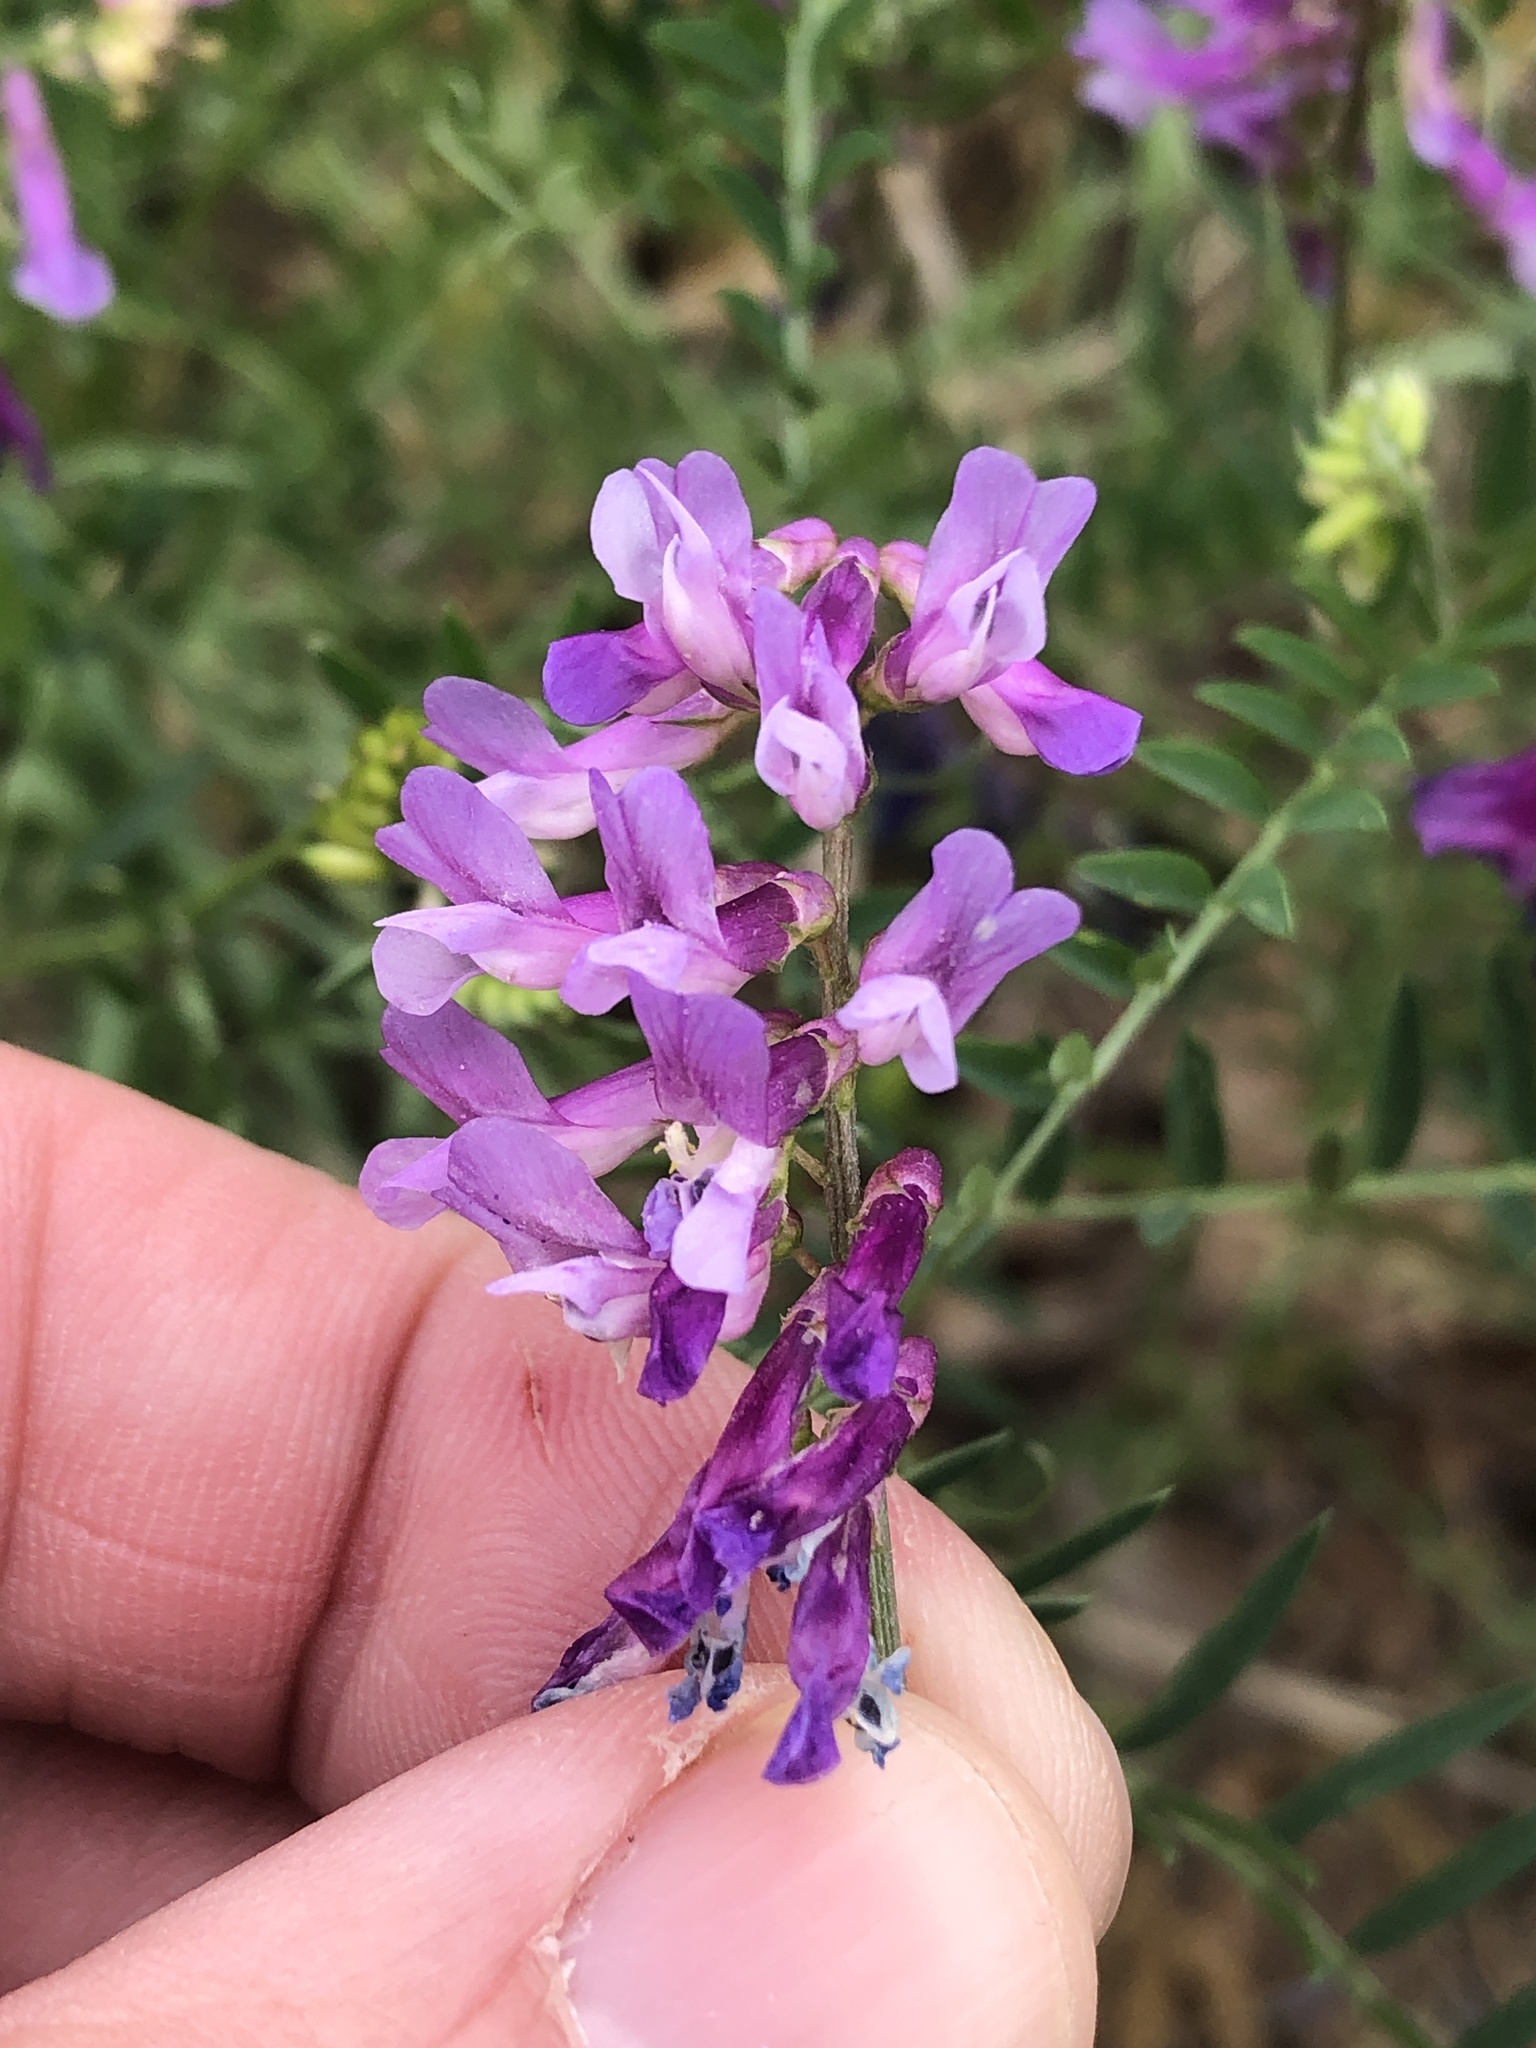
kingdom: Plantae
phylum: Tracheophyta
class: Magnoliopsida
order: Fabales
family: Fabaceae
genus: Vicia
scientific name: Vicia villosa
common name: Fodder vetch
